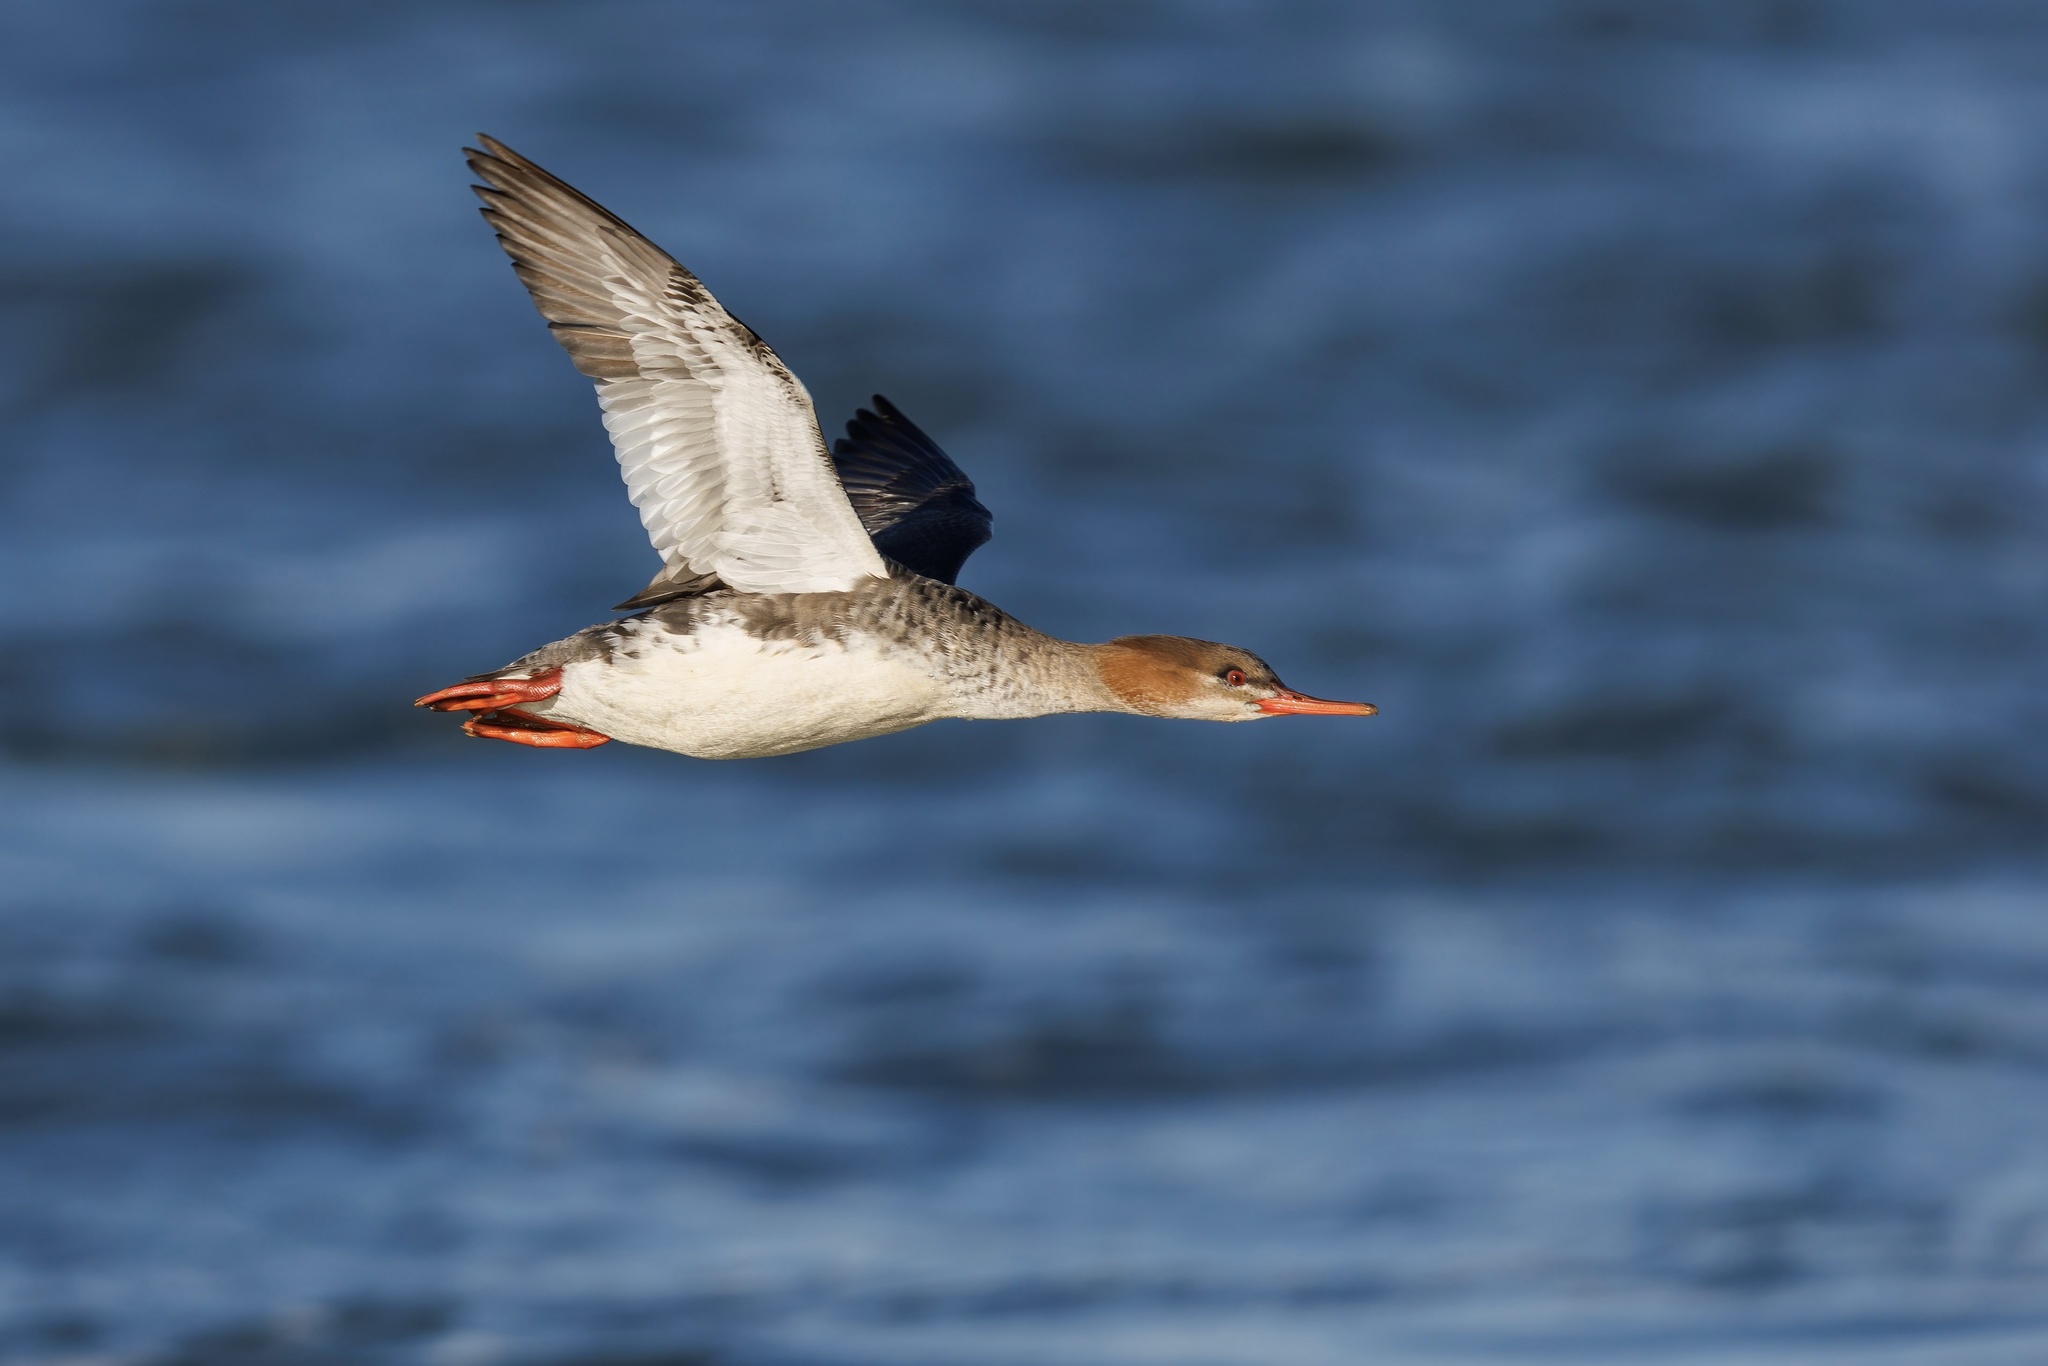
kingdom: Animalia
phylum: Chordata
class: Aves
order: Anseriformes
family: Anatidae
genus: Mergus
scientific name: Mergus serrator
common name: Red-breasted merganser
